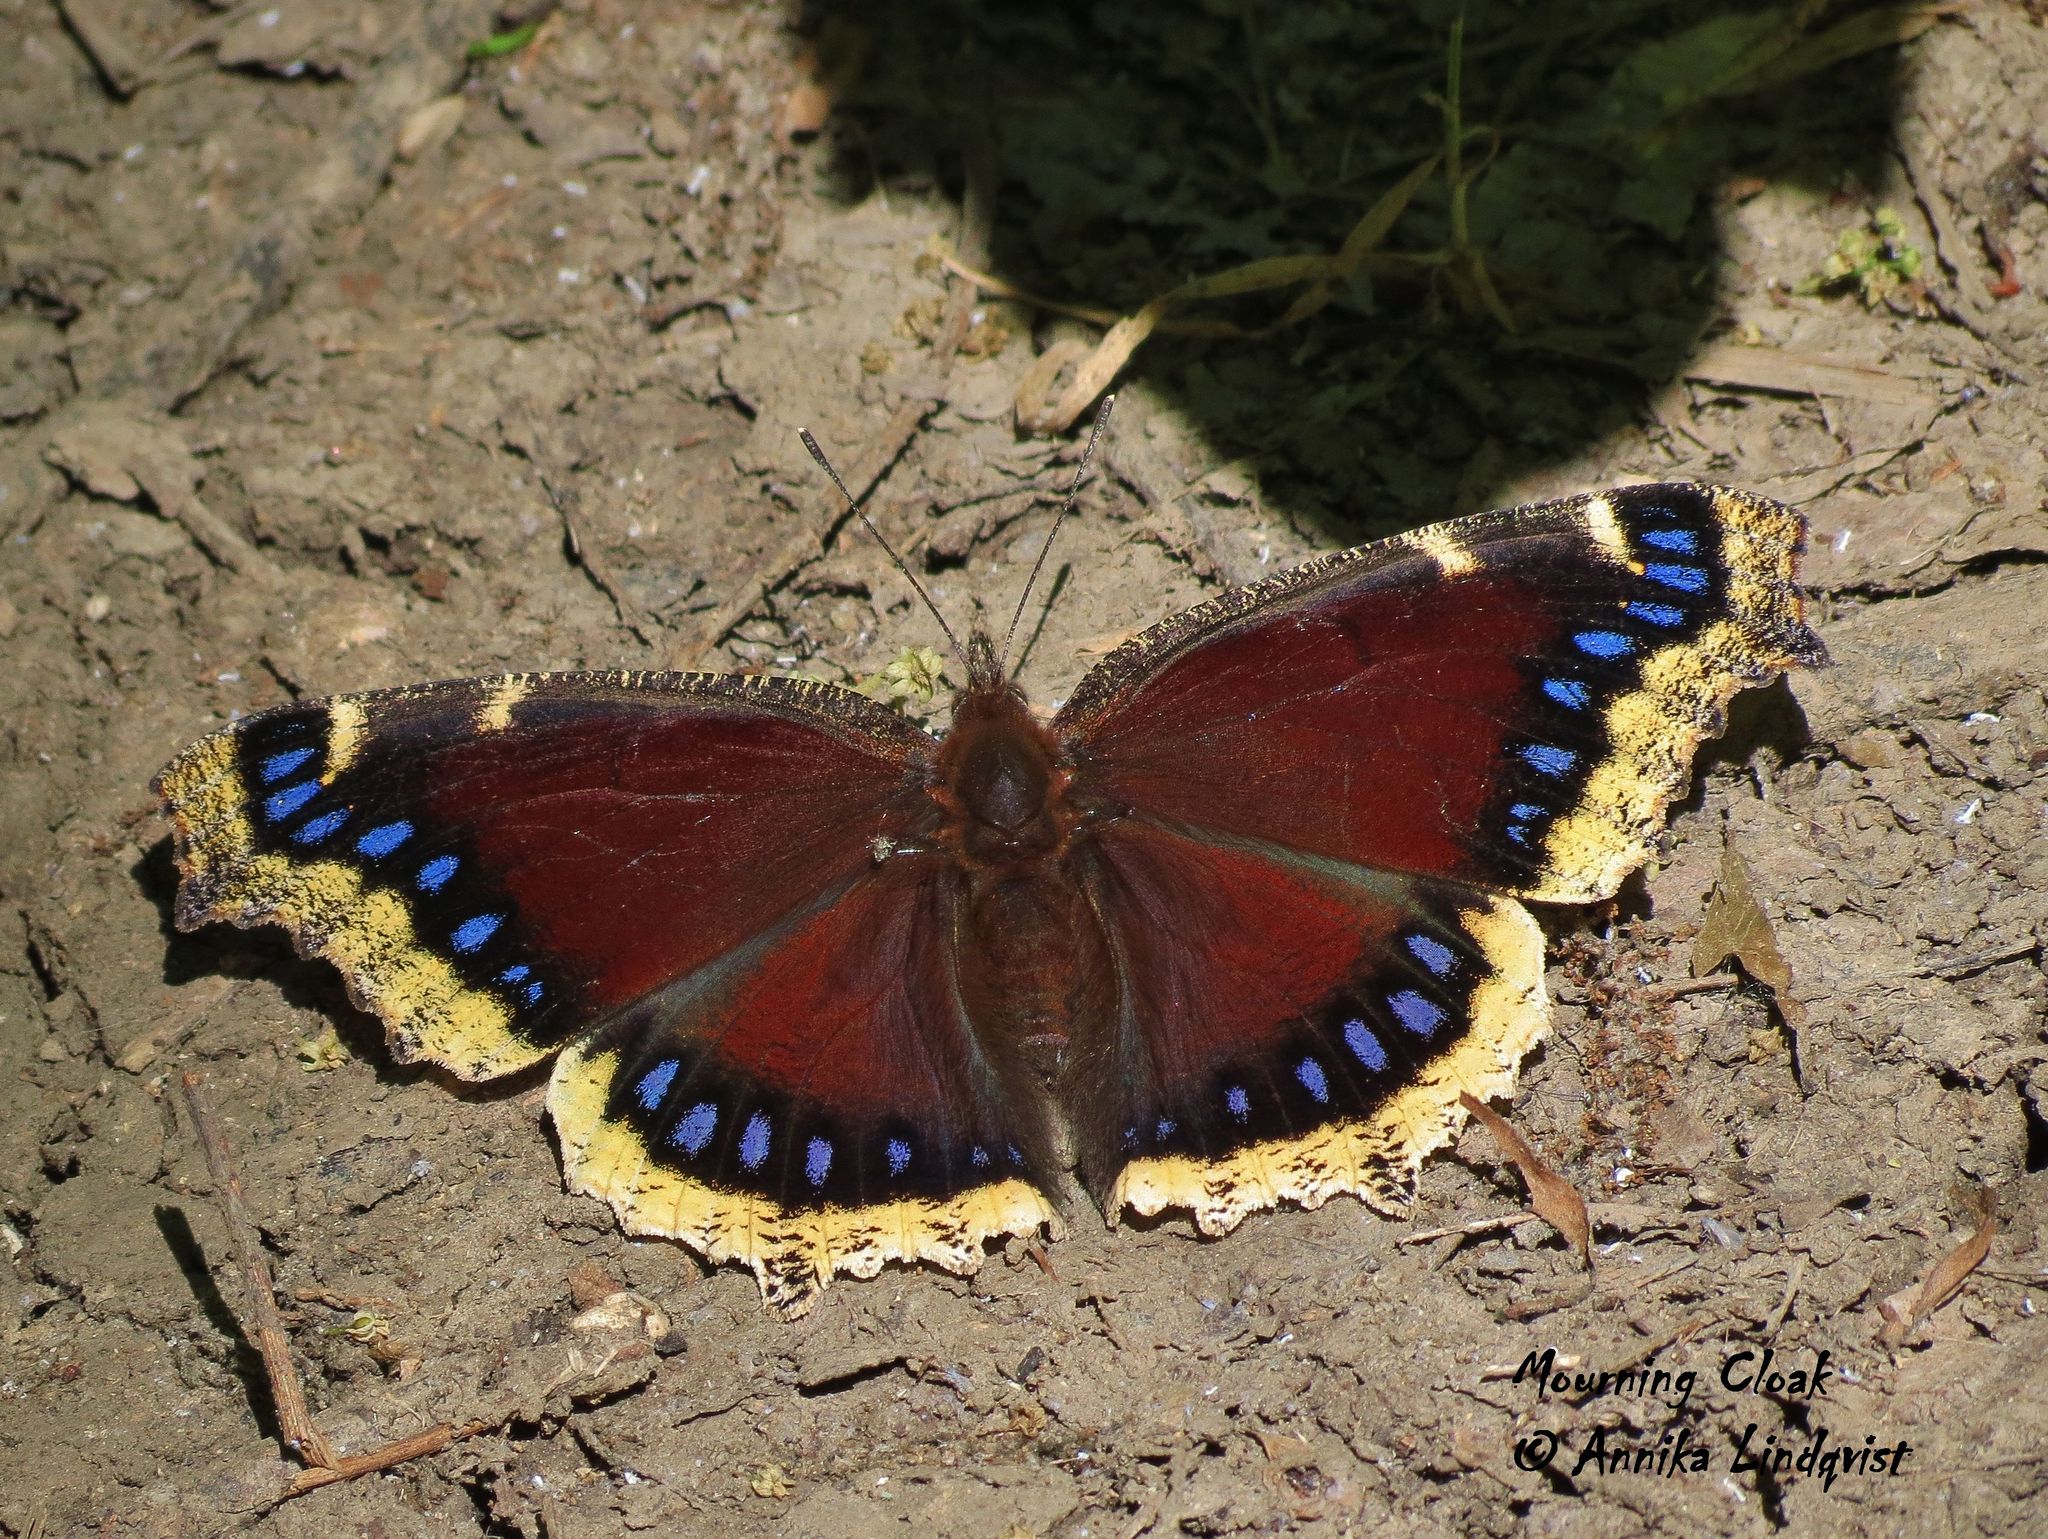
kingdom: Animalia
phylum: Arthropoda
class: Insecta
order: Lepidoptera
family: Nymphalidae
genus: Nymphalis
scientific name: Nymphalis antiopa
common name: Camberwell beauty
